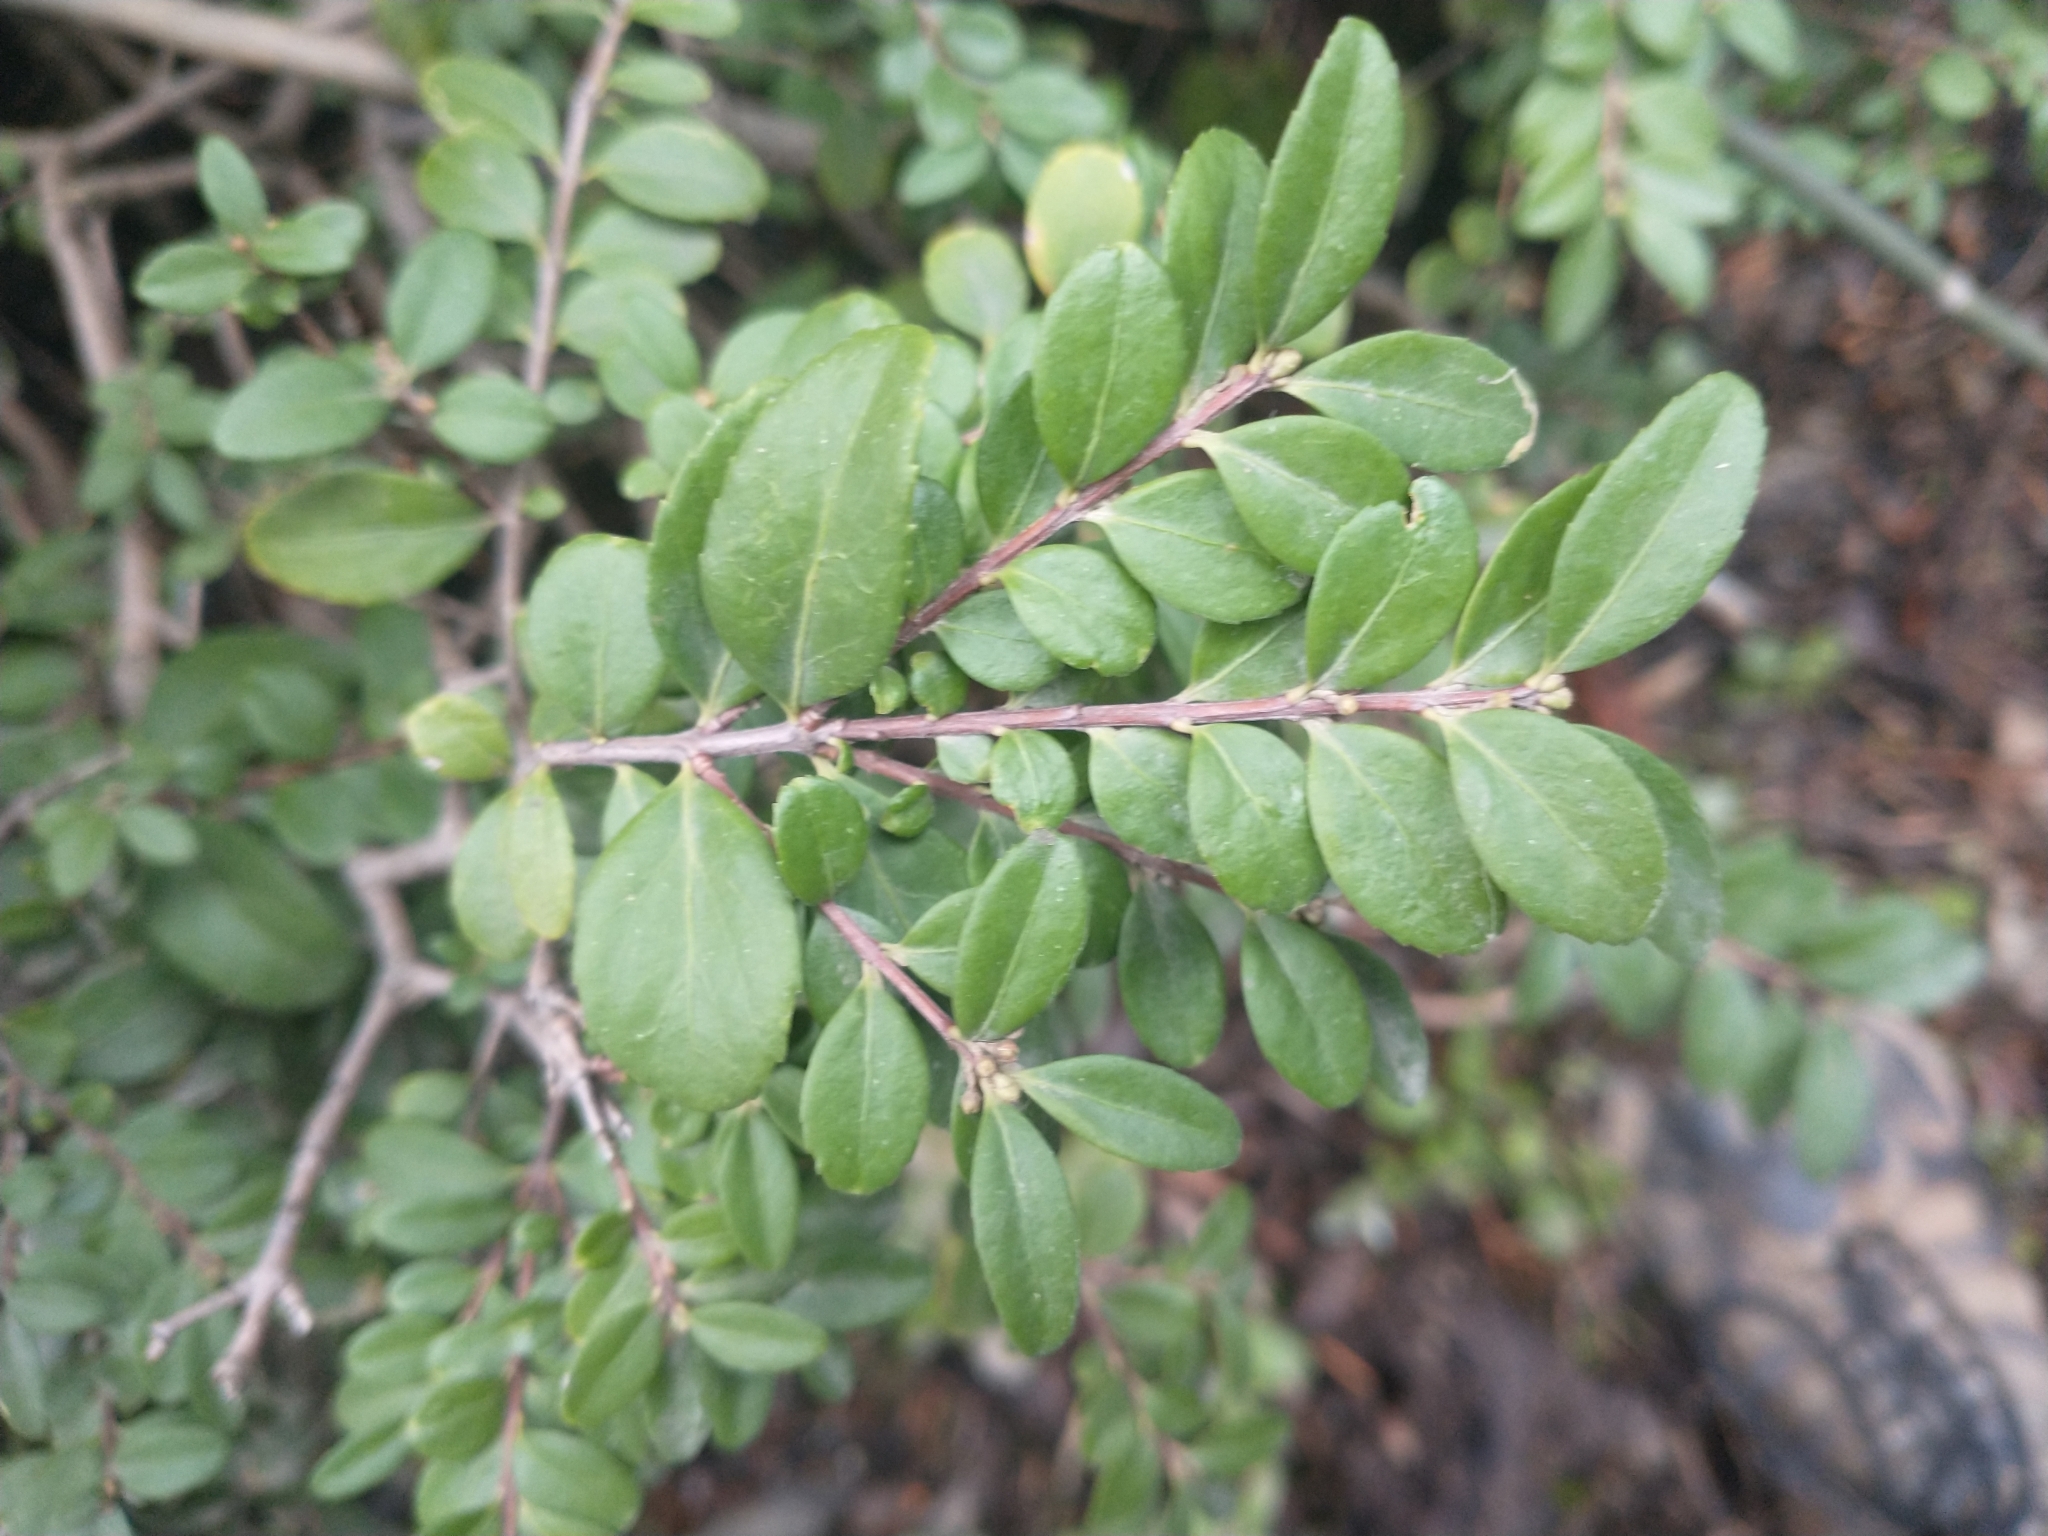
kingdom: Plantae
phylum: Tracheophyta
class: Magnoliopsida
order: Celastrales
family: Celastraceae
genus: Paxistima
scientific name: Paxistima myrsinites
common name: Mountain-lover
